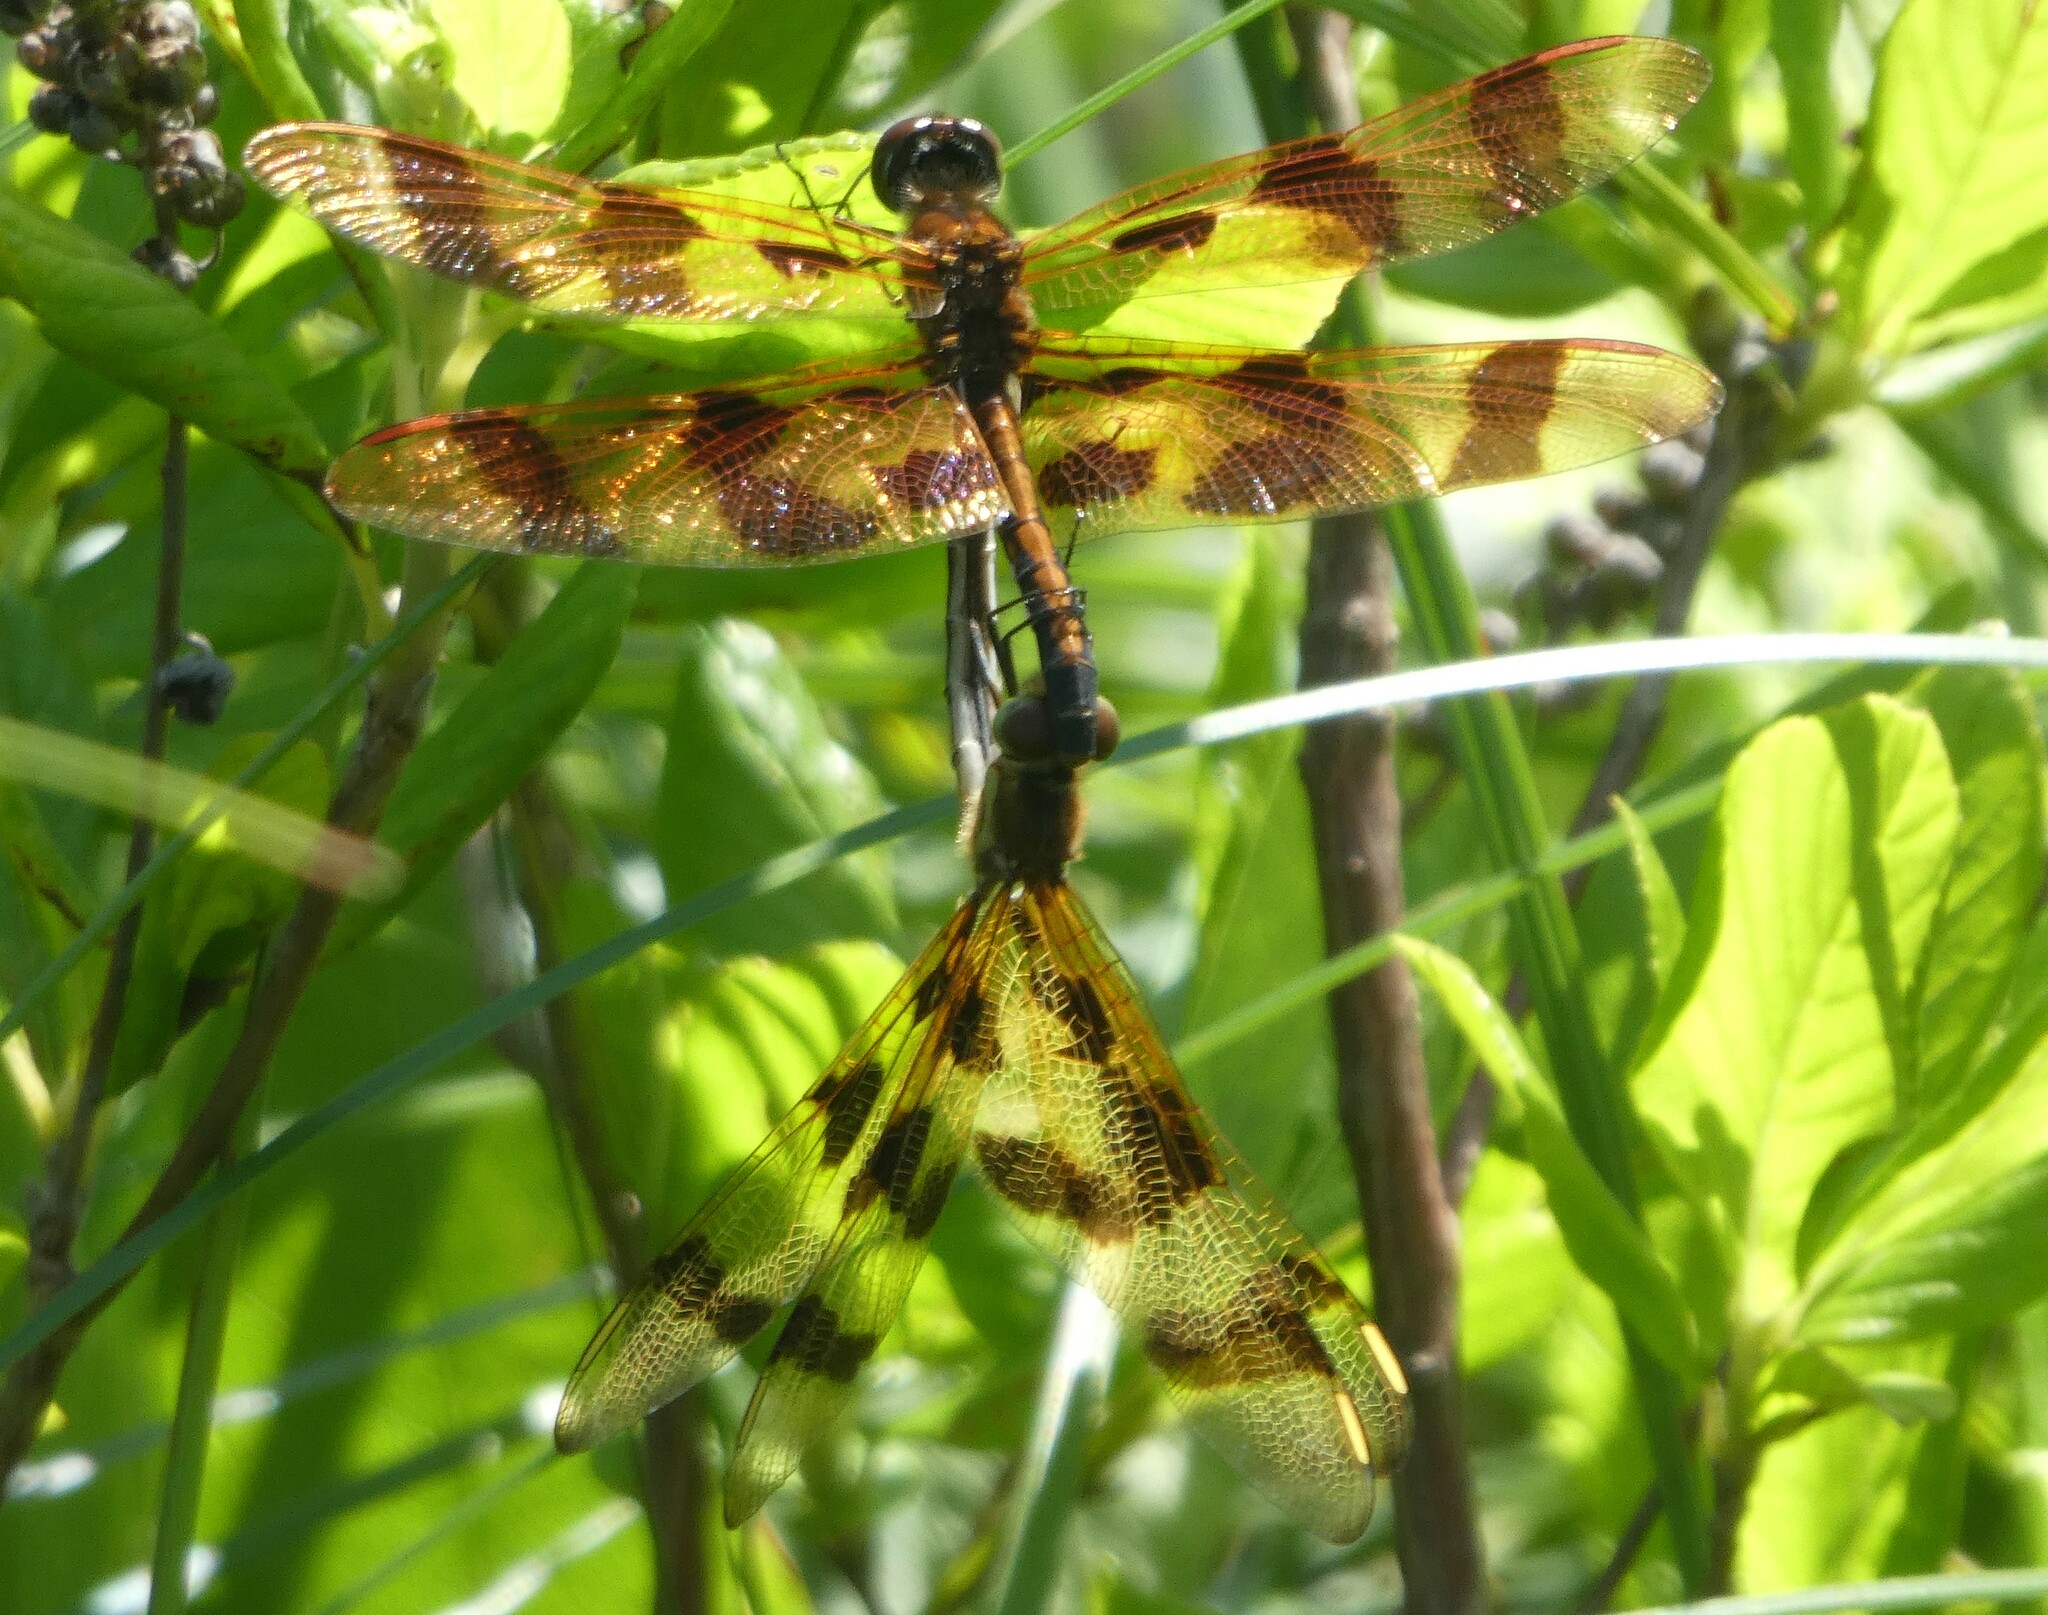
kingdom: Animalia
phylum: Arthropoda
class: Insecta
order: Odonata
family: Libellulidae
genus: Celithemis
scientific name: Celithemis eponina
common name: Halloween pennant
